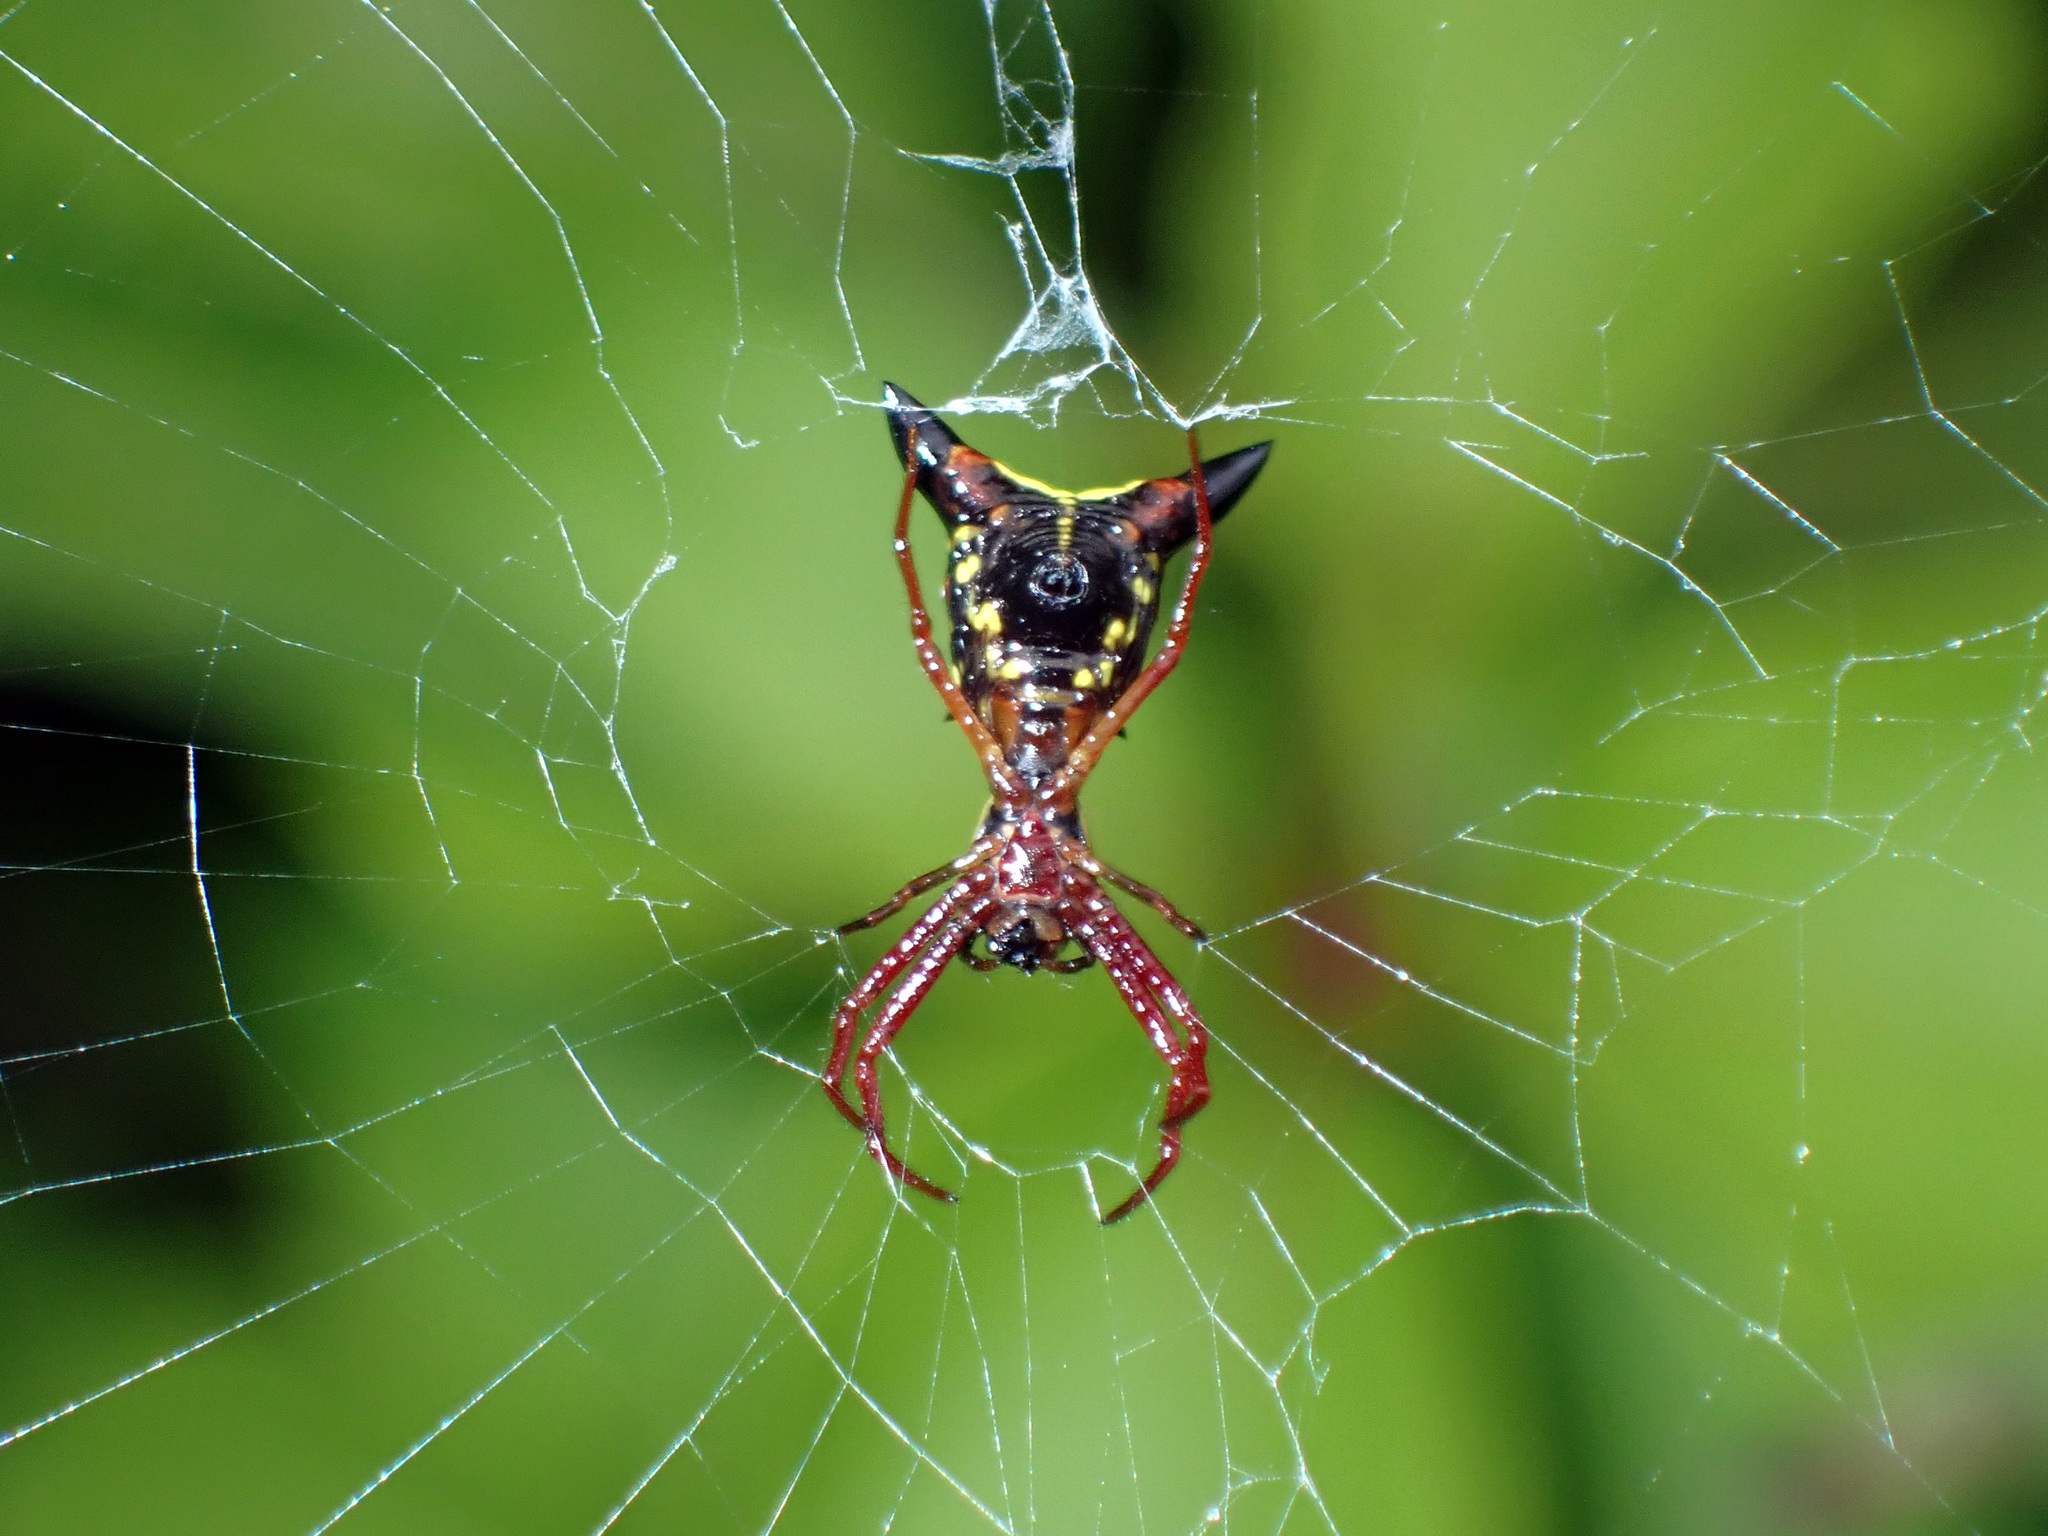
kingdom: Animalia
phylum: Arthropoda
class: Arachnida
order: Araneae
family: Araneidae
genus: Micrathena
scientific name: Micrathena sagittata
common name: Orb weavers
